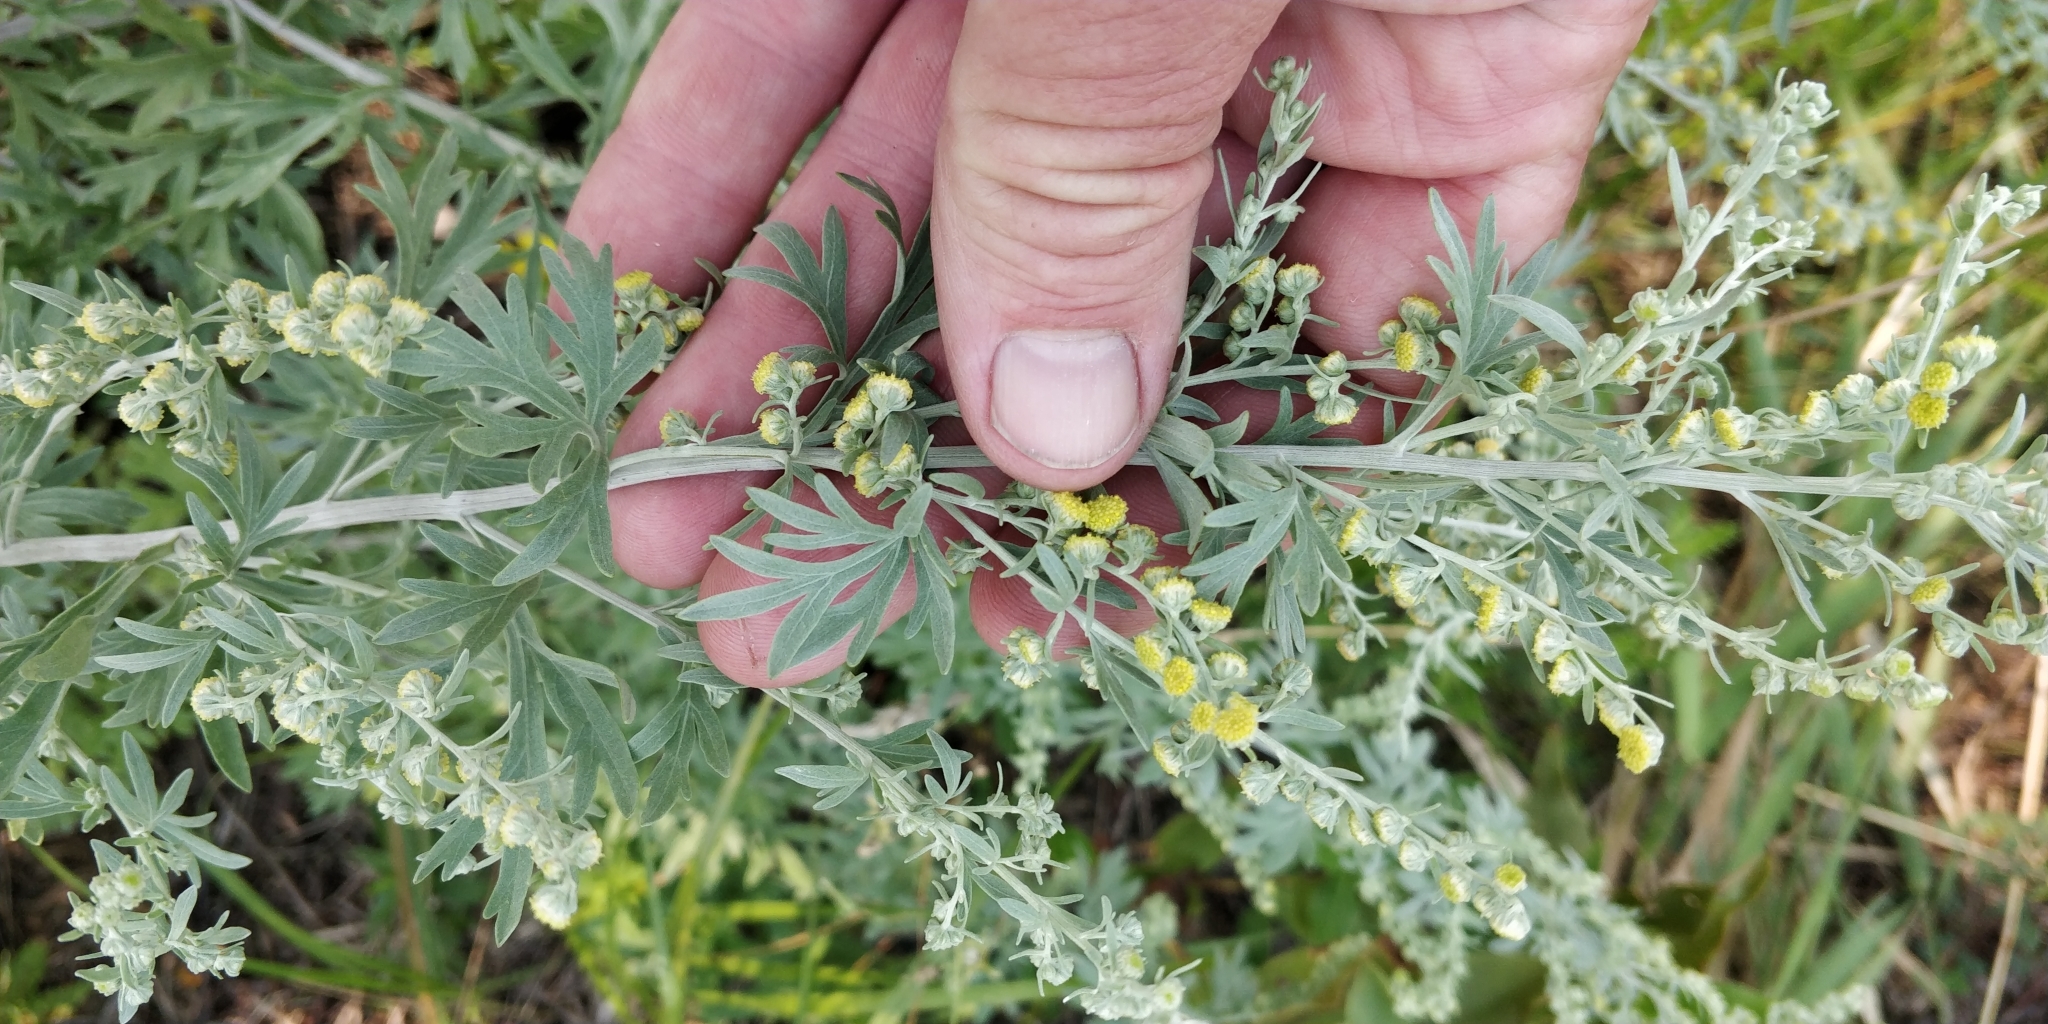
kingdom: Plantae
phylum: Tracheophyta
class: Magnoliopsida
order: Asterales
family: Asteraceae
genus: Artemisia
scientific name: Artemisia absinthium
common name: Wormwood
